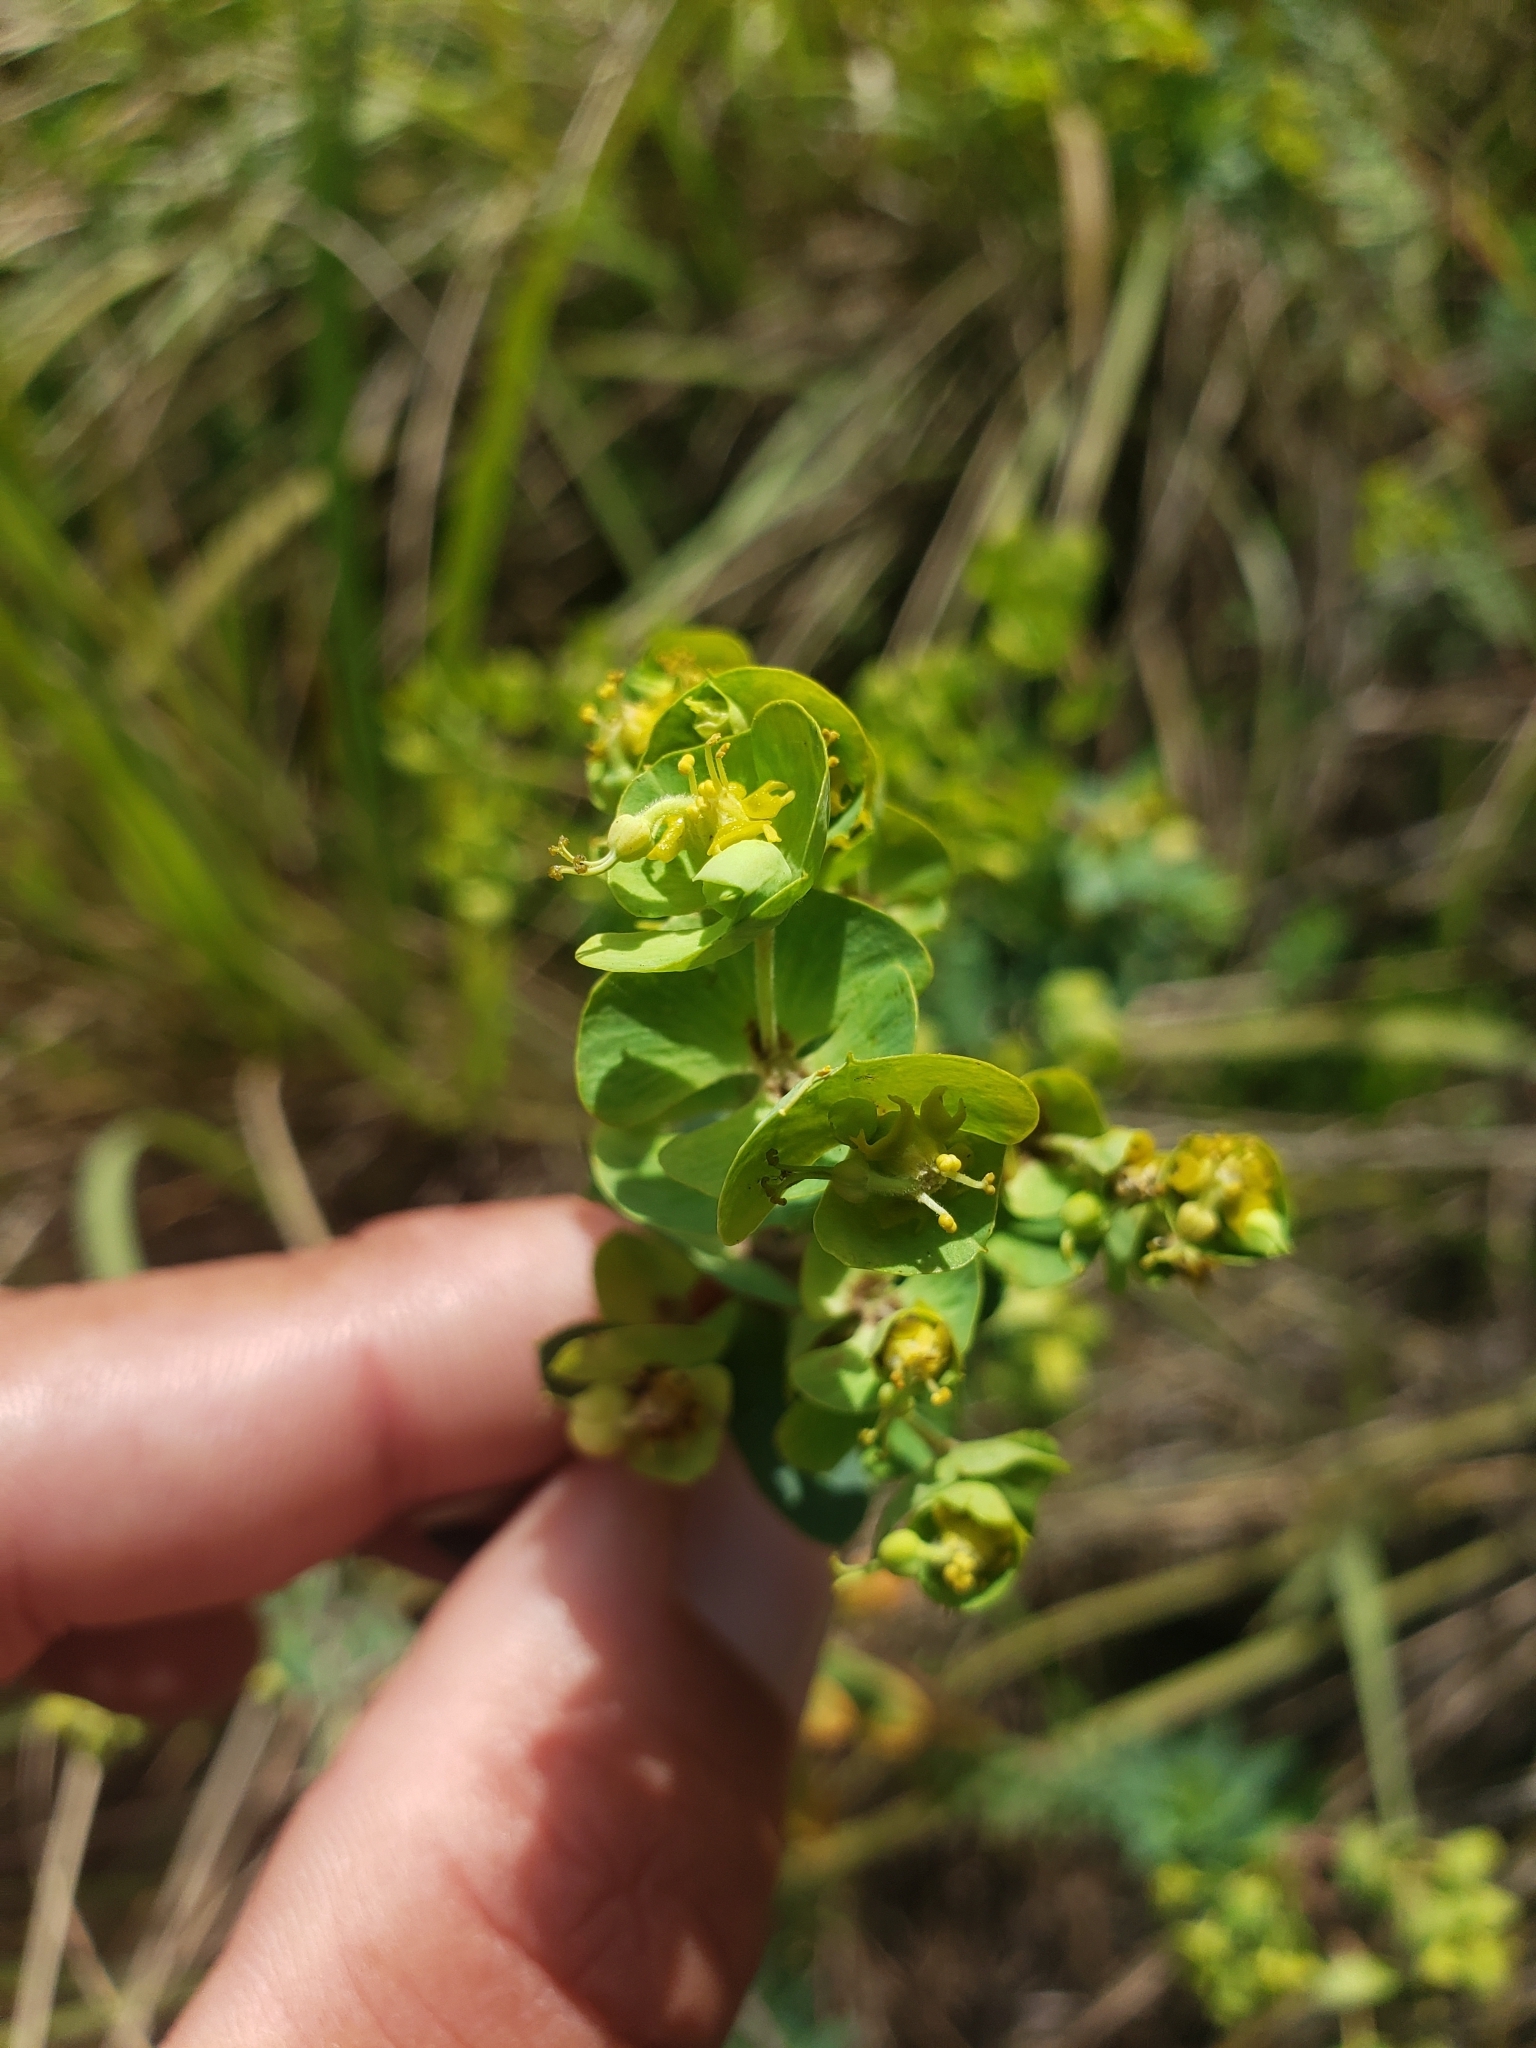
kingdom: Plantae
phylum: Tracheophyta
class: Magnoliopsida
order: Malpighiales
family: Euphorbiaceae
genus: Euphorbia
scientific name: Euphorbia natalensis
